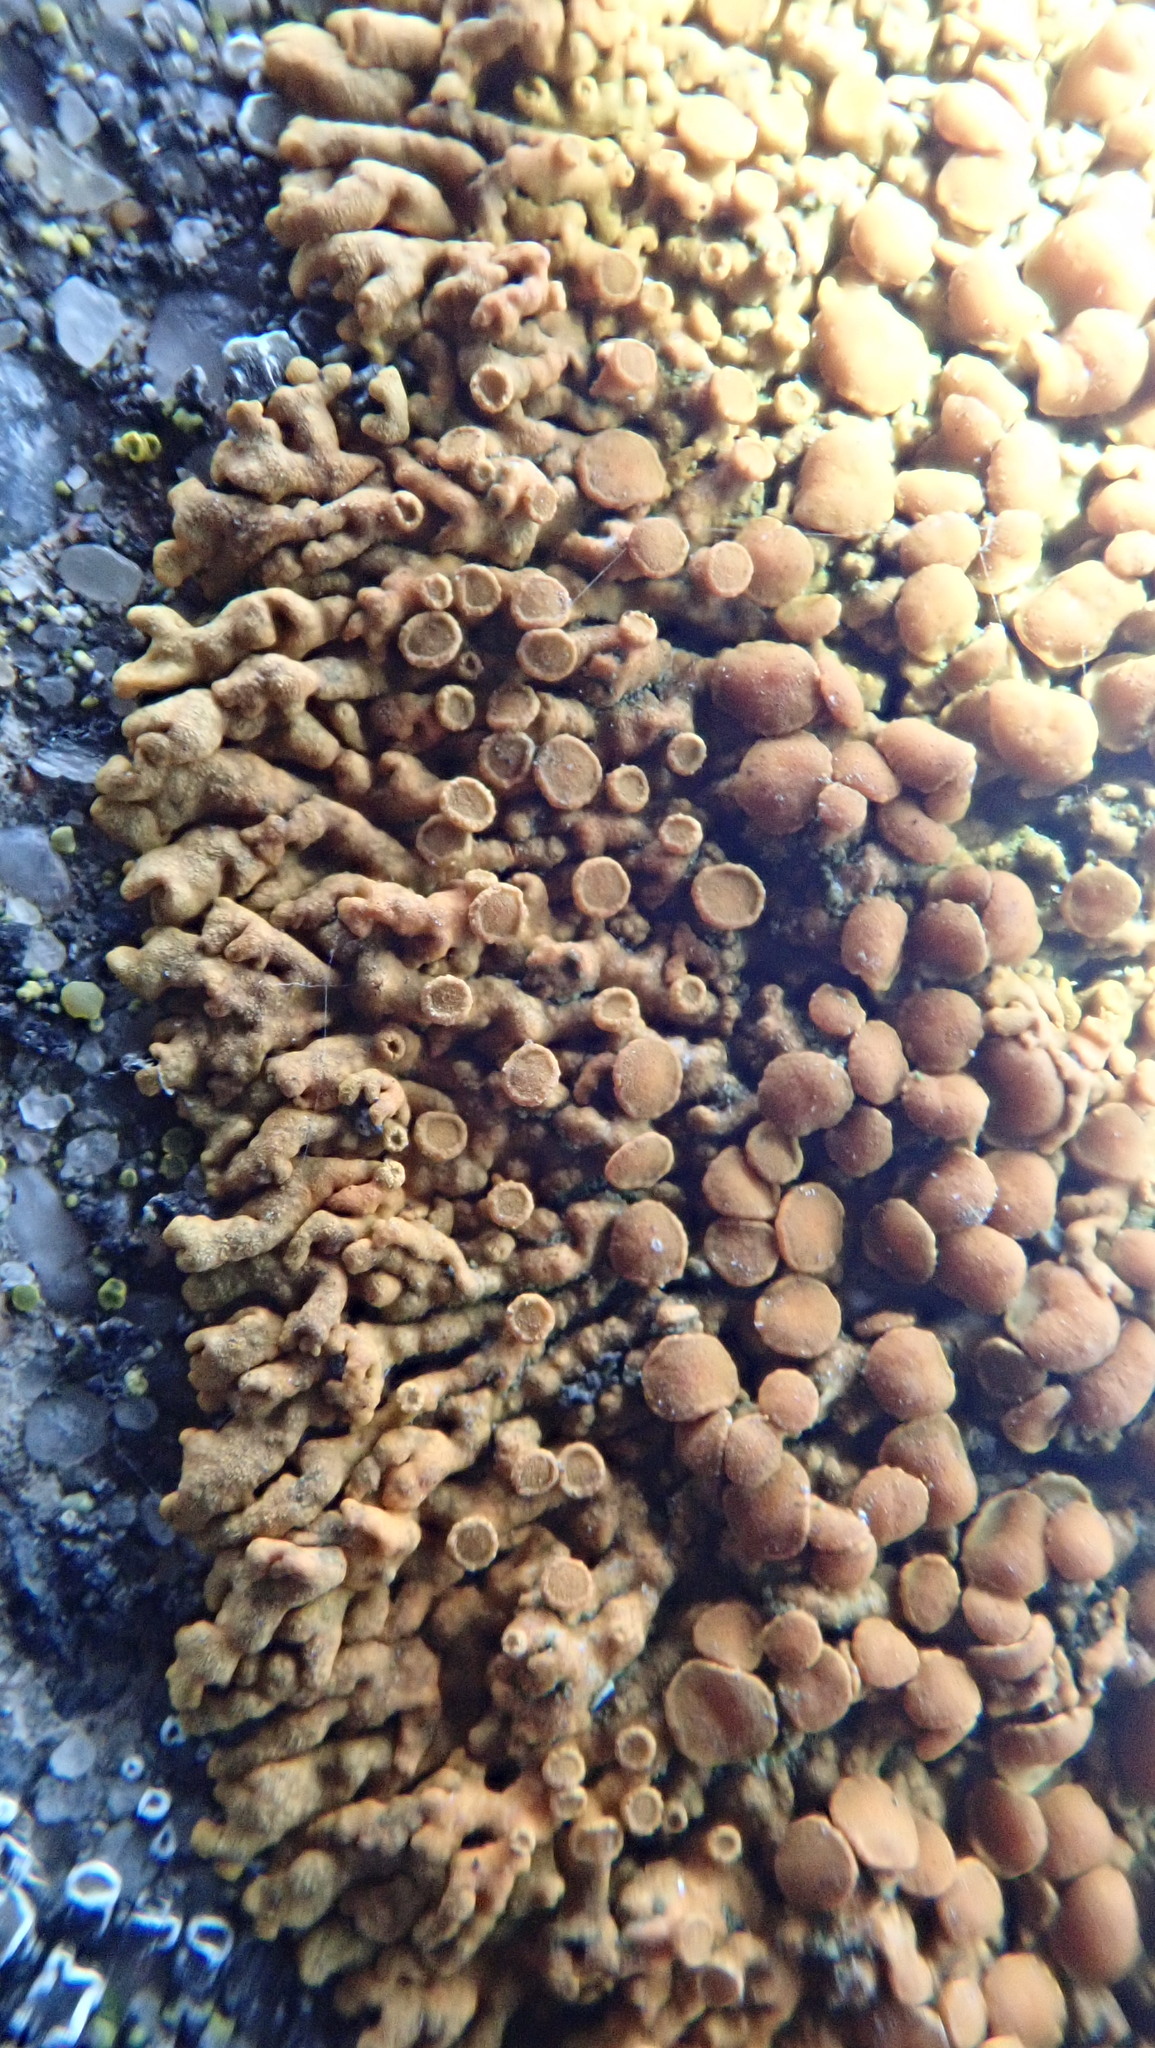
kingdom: Fungi
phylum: Ascomycota
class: Lecanoromycetes
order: Teloschistales
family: Teloschistaceae
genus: Xanthoria
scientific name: Xanthoria elegans
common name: Elegant sunburst lichen
